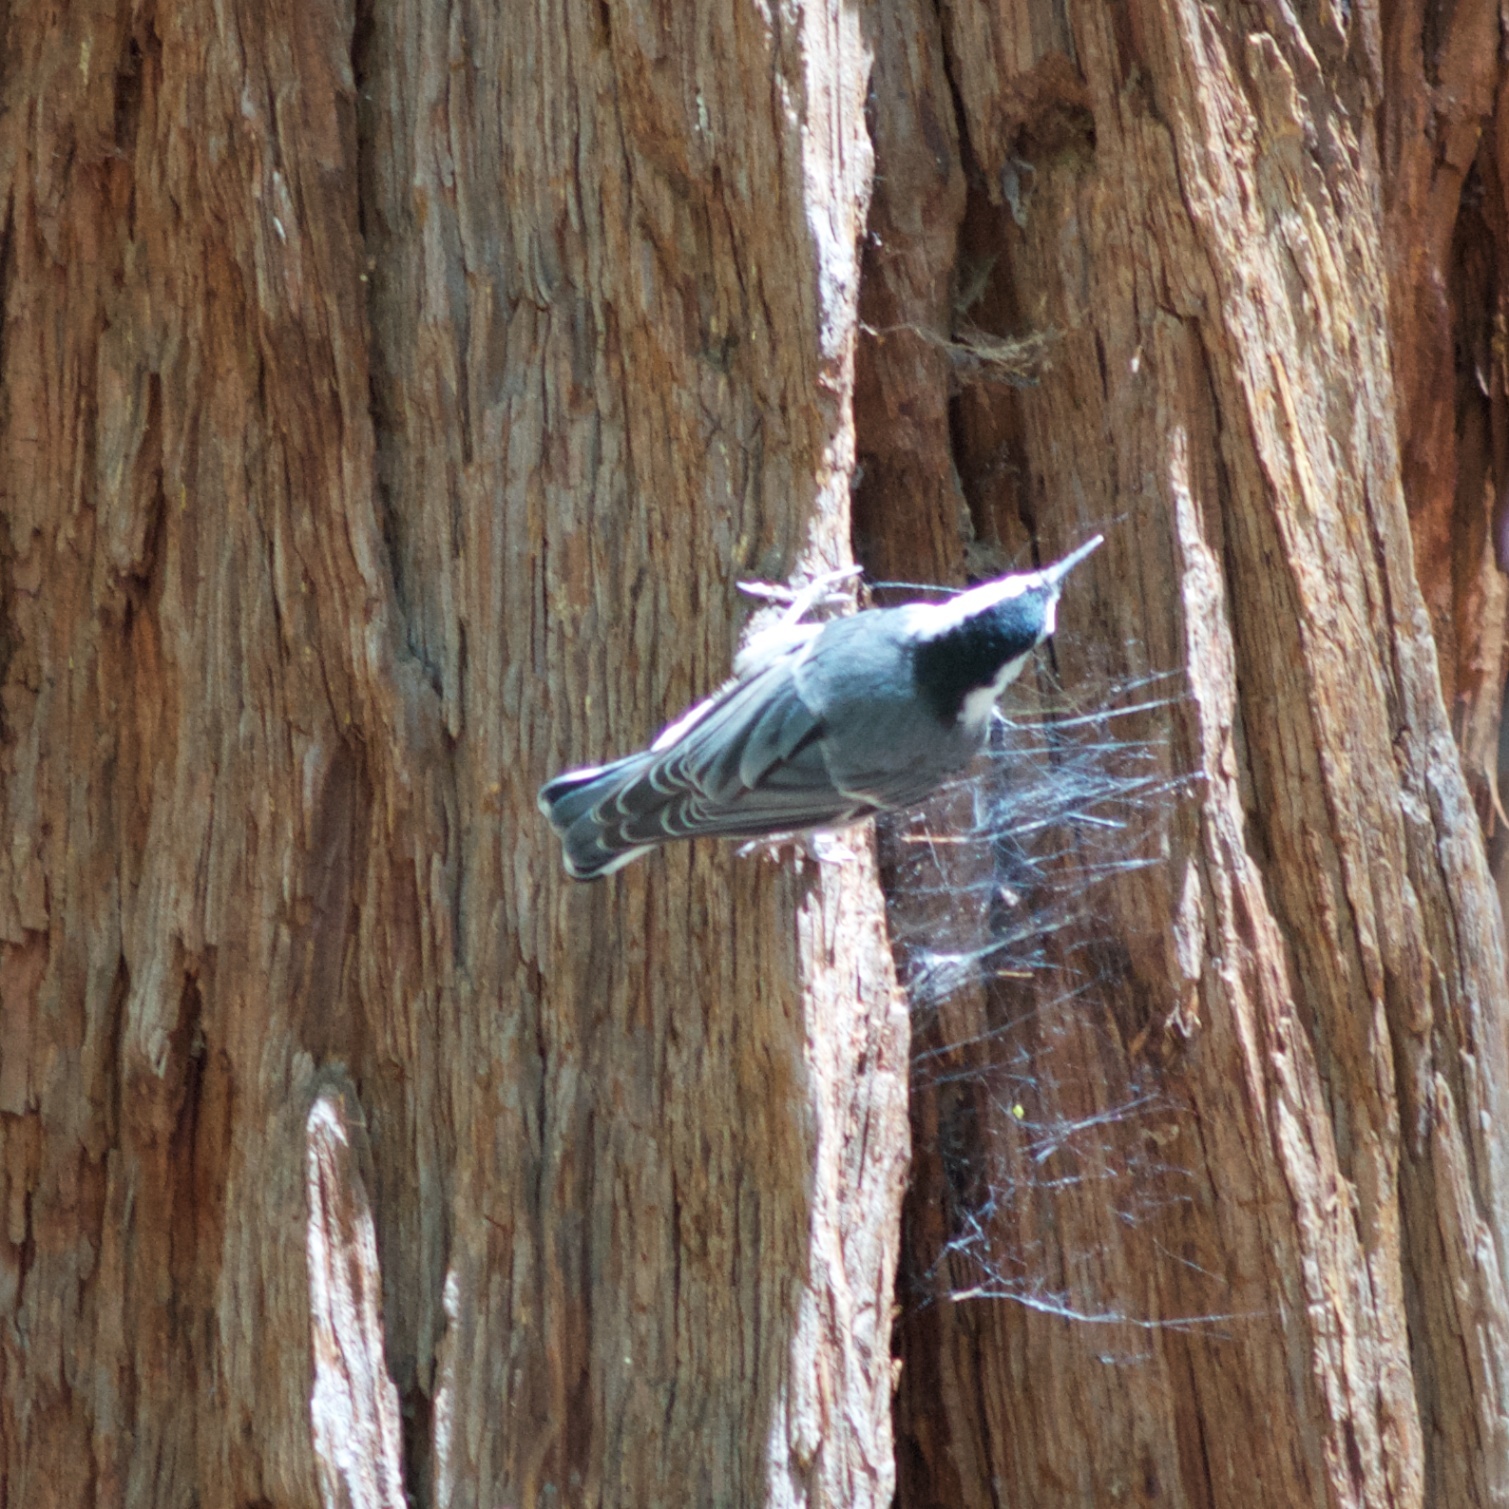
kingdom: Animalia
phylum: Chordata
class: Aves
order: Passeriformes
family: Sittidae
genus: Sitta
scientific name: Sitta carolinensis
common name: White-breasted nuthatch
